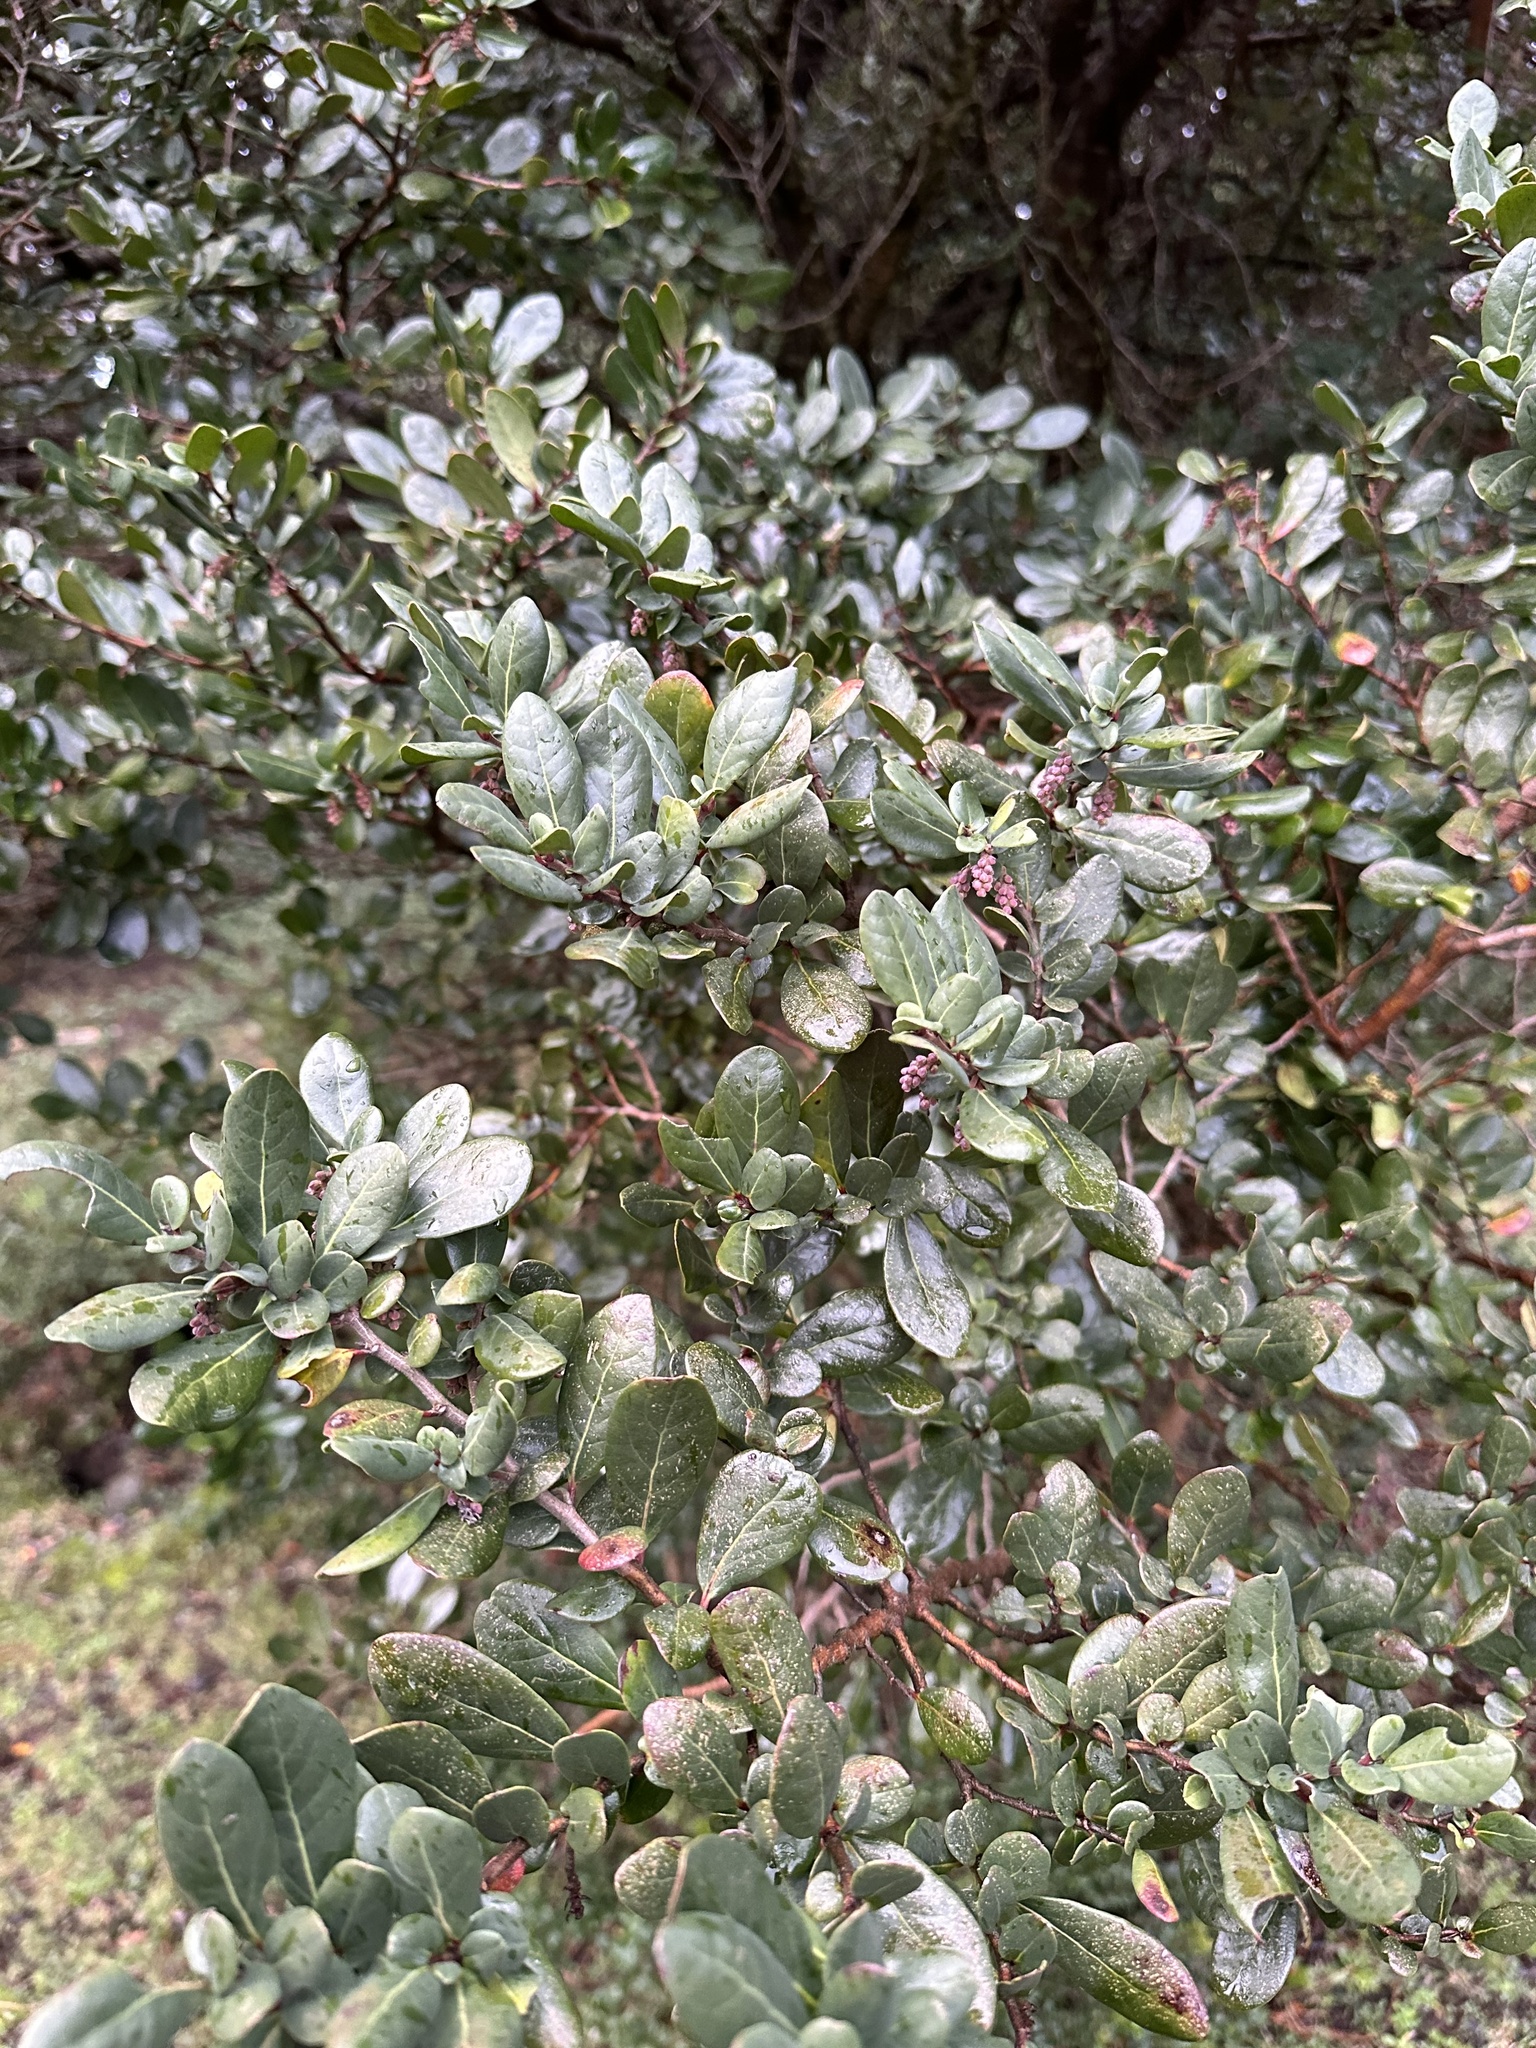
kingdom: Plantae
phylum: Tracheophyta
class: Magnoliopsida
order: Malpighiales
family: Salicaceae
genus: Azara
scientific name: Azara integrifolia
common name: Goldspire
